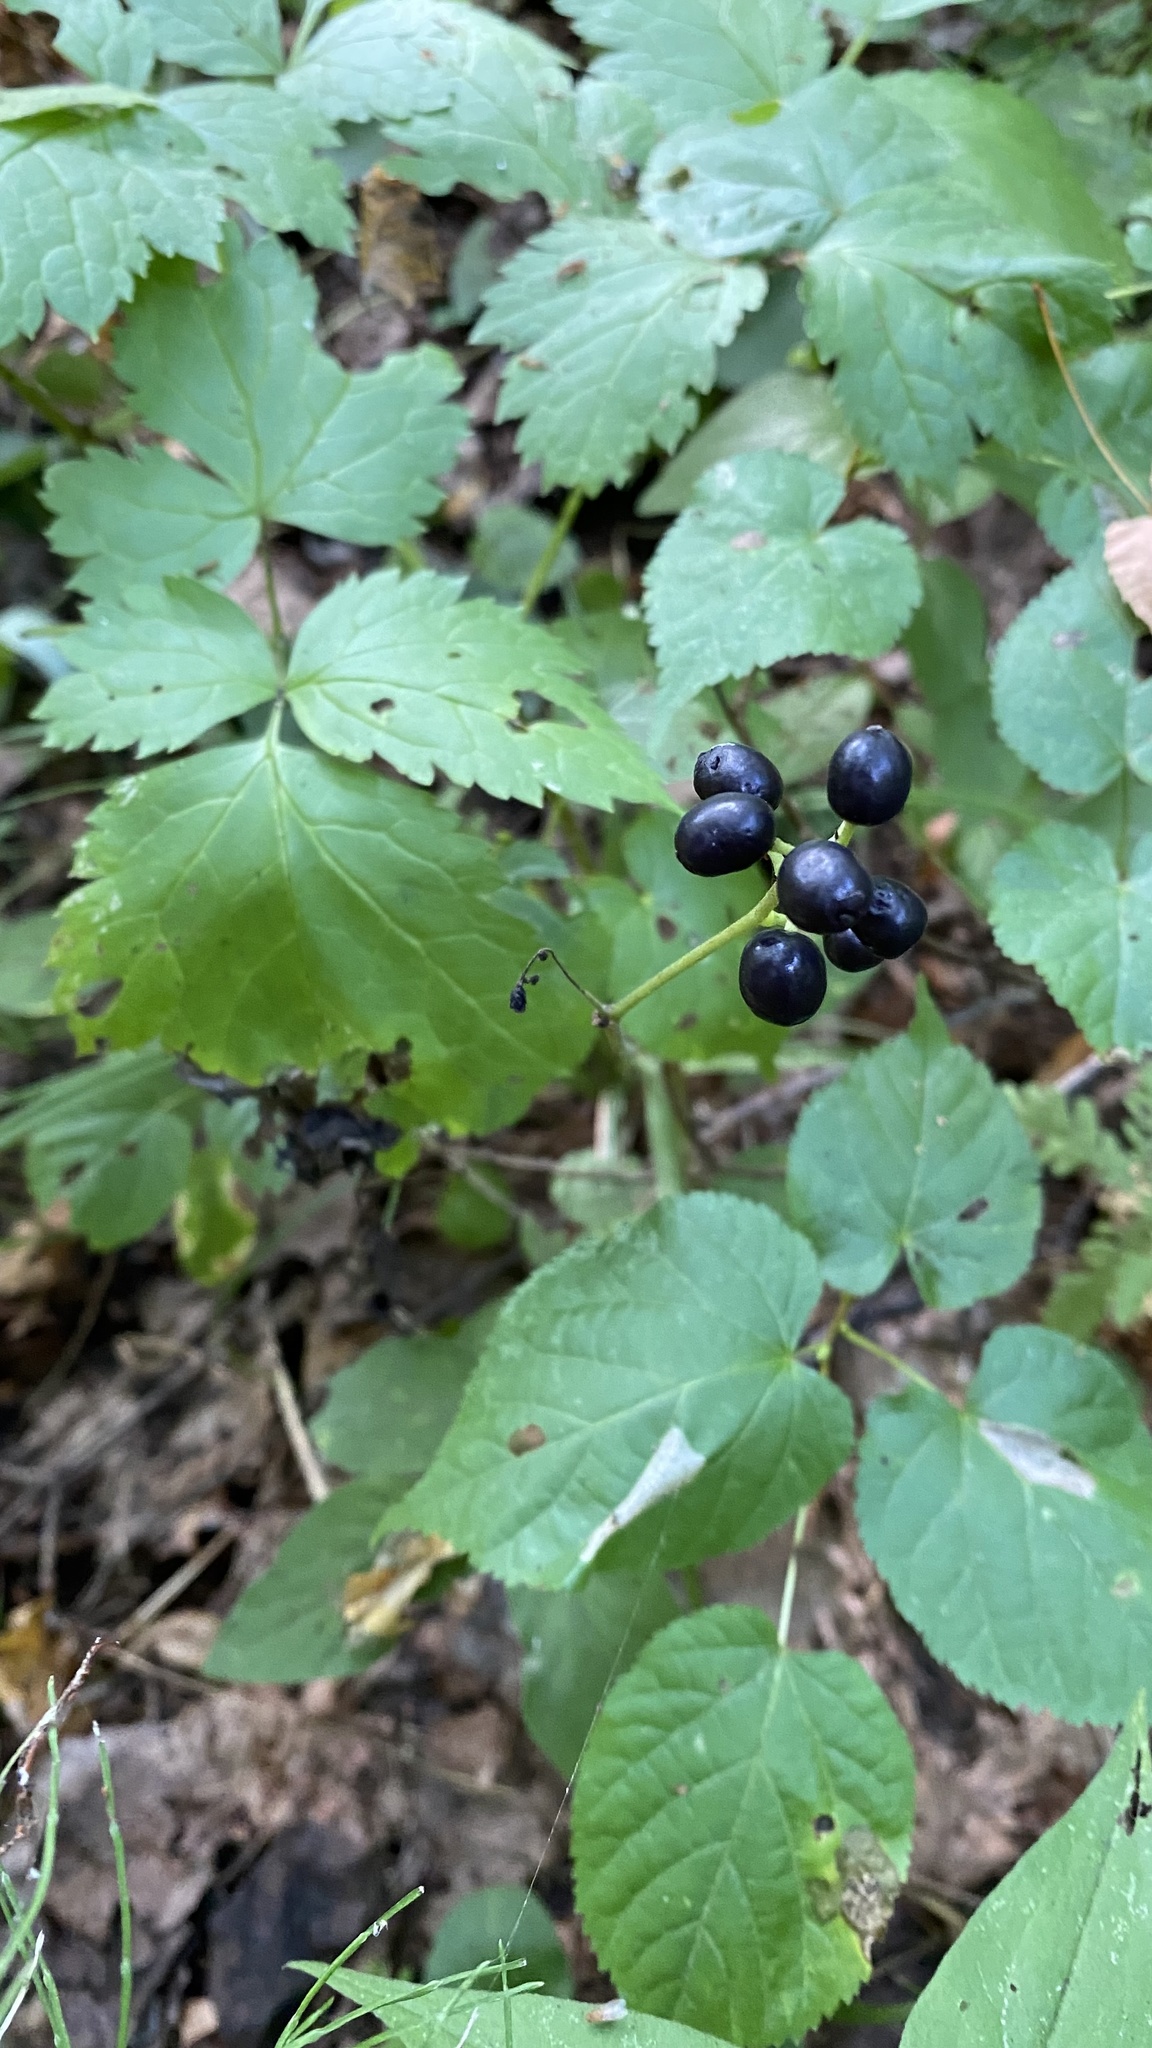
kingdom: Plantae
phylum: Tracheophyta
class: Magnoliopsida
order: Ranunculales
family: Ranunculaceae
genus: Actaea
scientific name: Actaea spicata
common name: Baneberry
